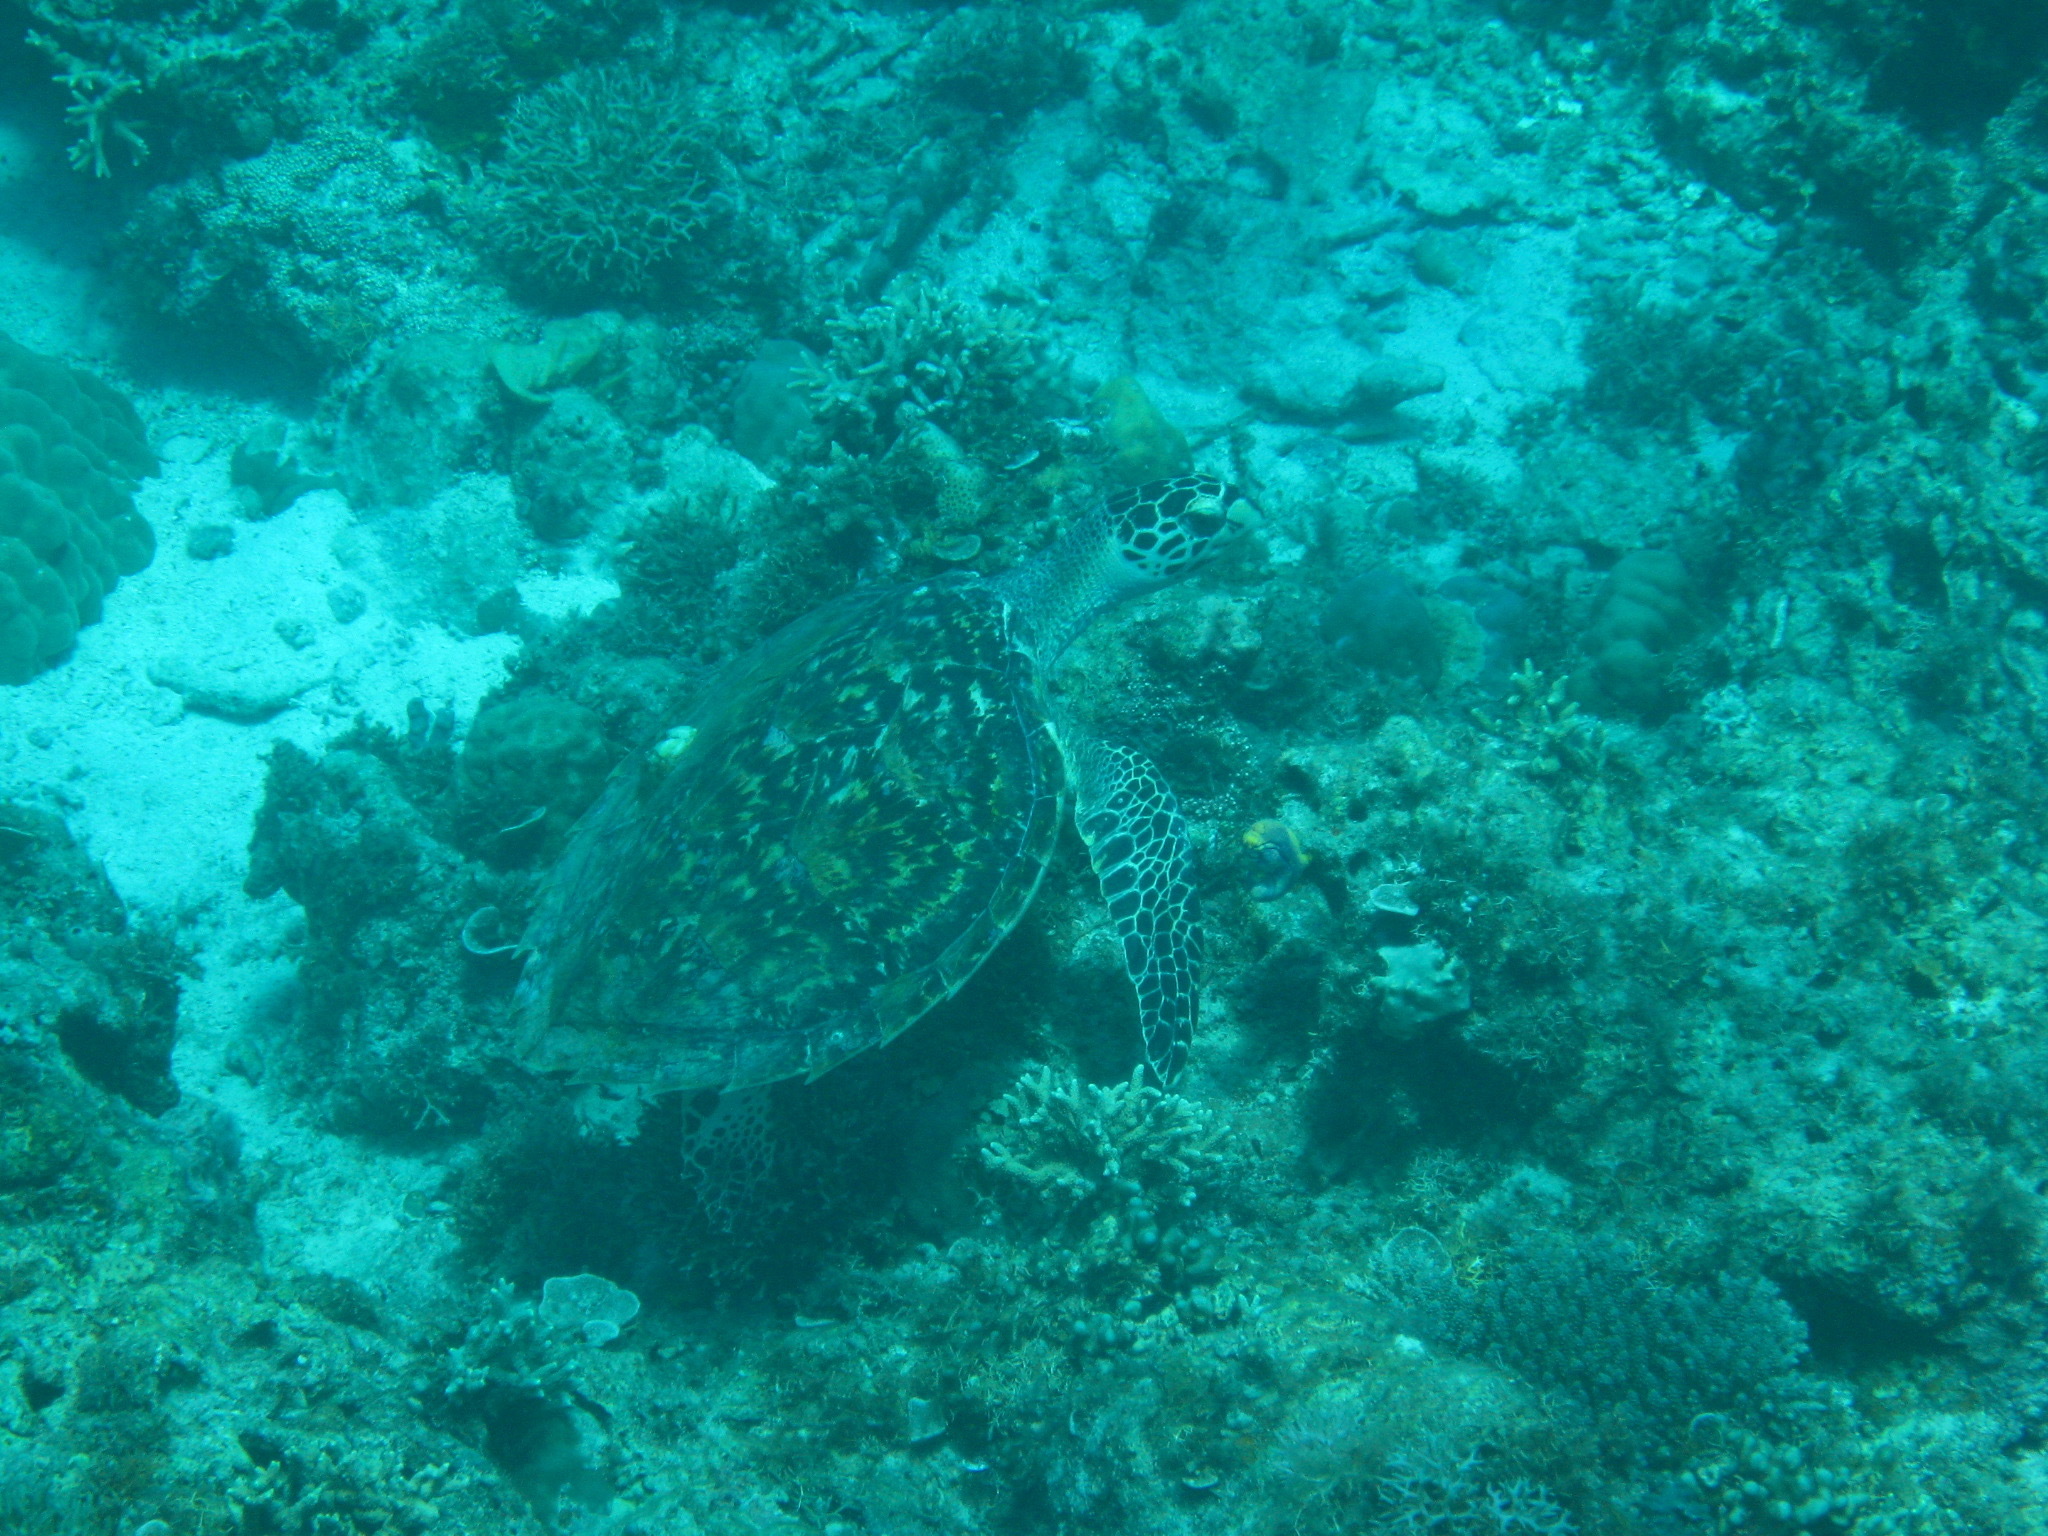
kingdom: Animalia
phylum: Chordata
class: Testudines
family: Cheloniidae
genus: Eretmochelys
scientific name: Eretmochelys imbricata
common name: Hawksbill turtle
